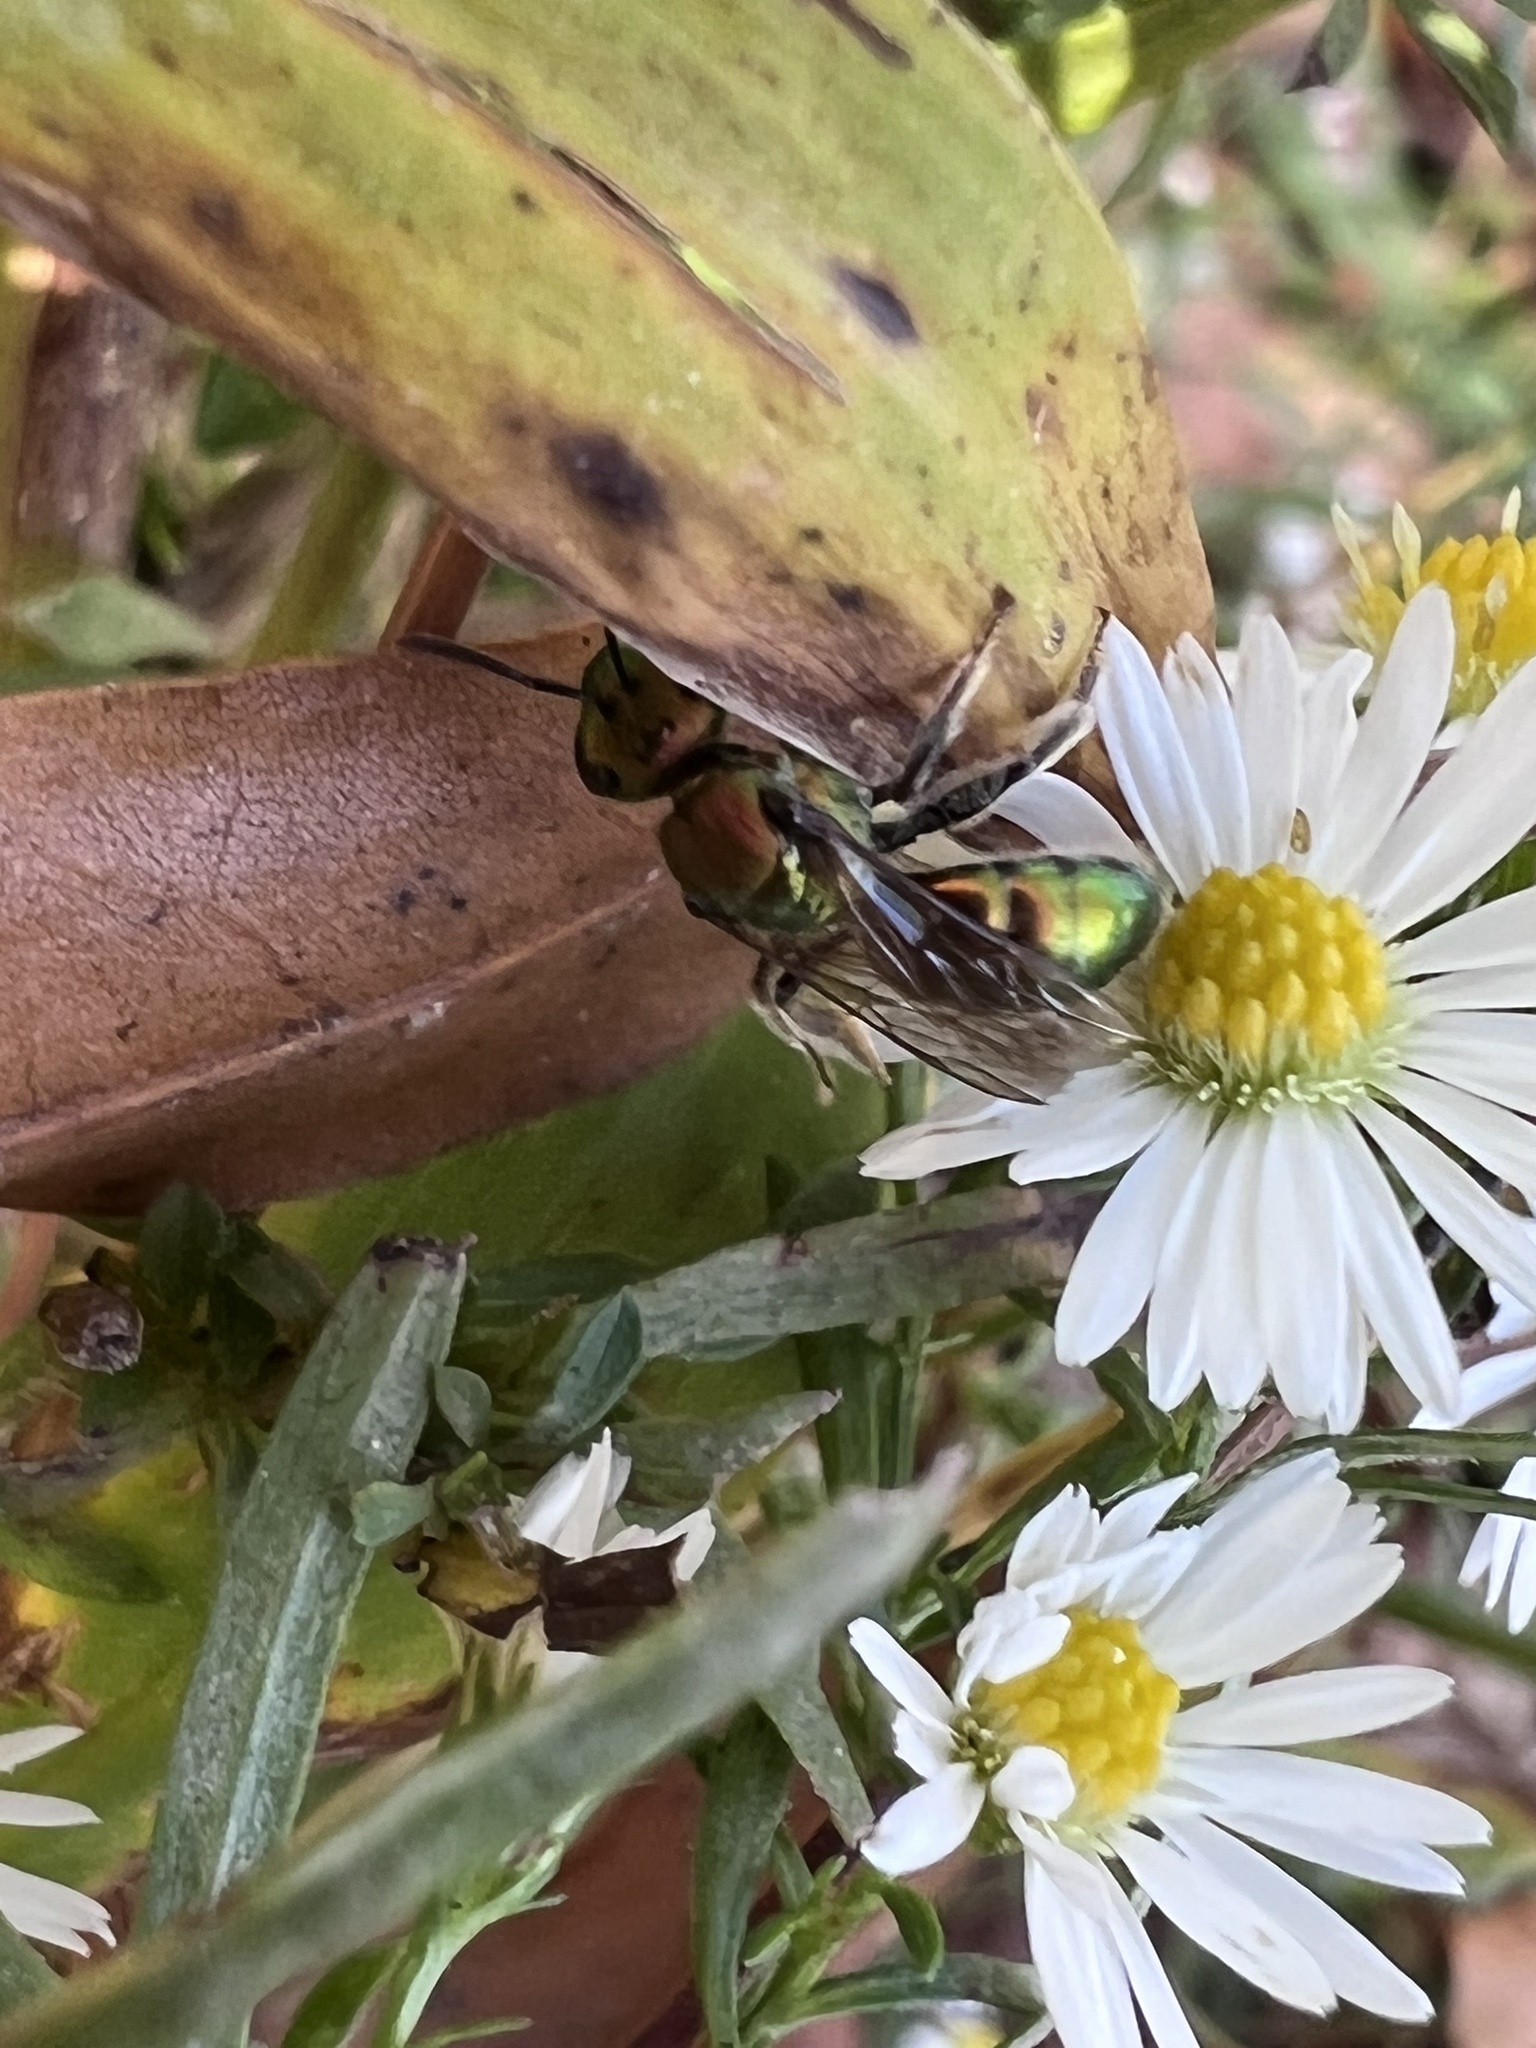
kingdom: Animalia
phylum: Arthropoda
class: Insecta
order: Hymenoptera
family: Halictidae
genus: Augochlora
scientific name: Augochlora pura
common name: Pure green sweat bee
